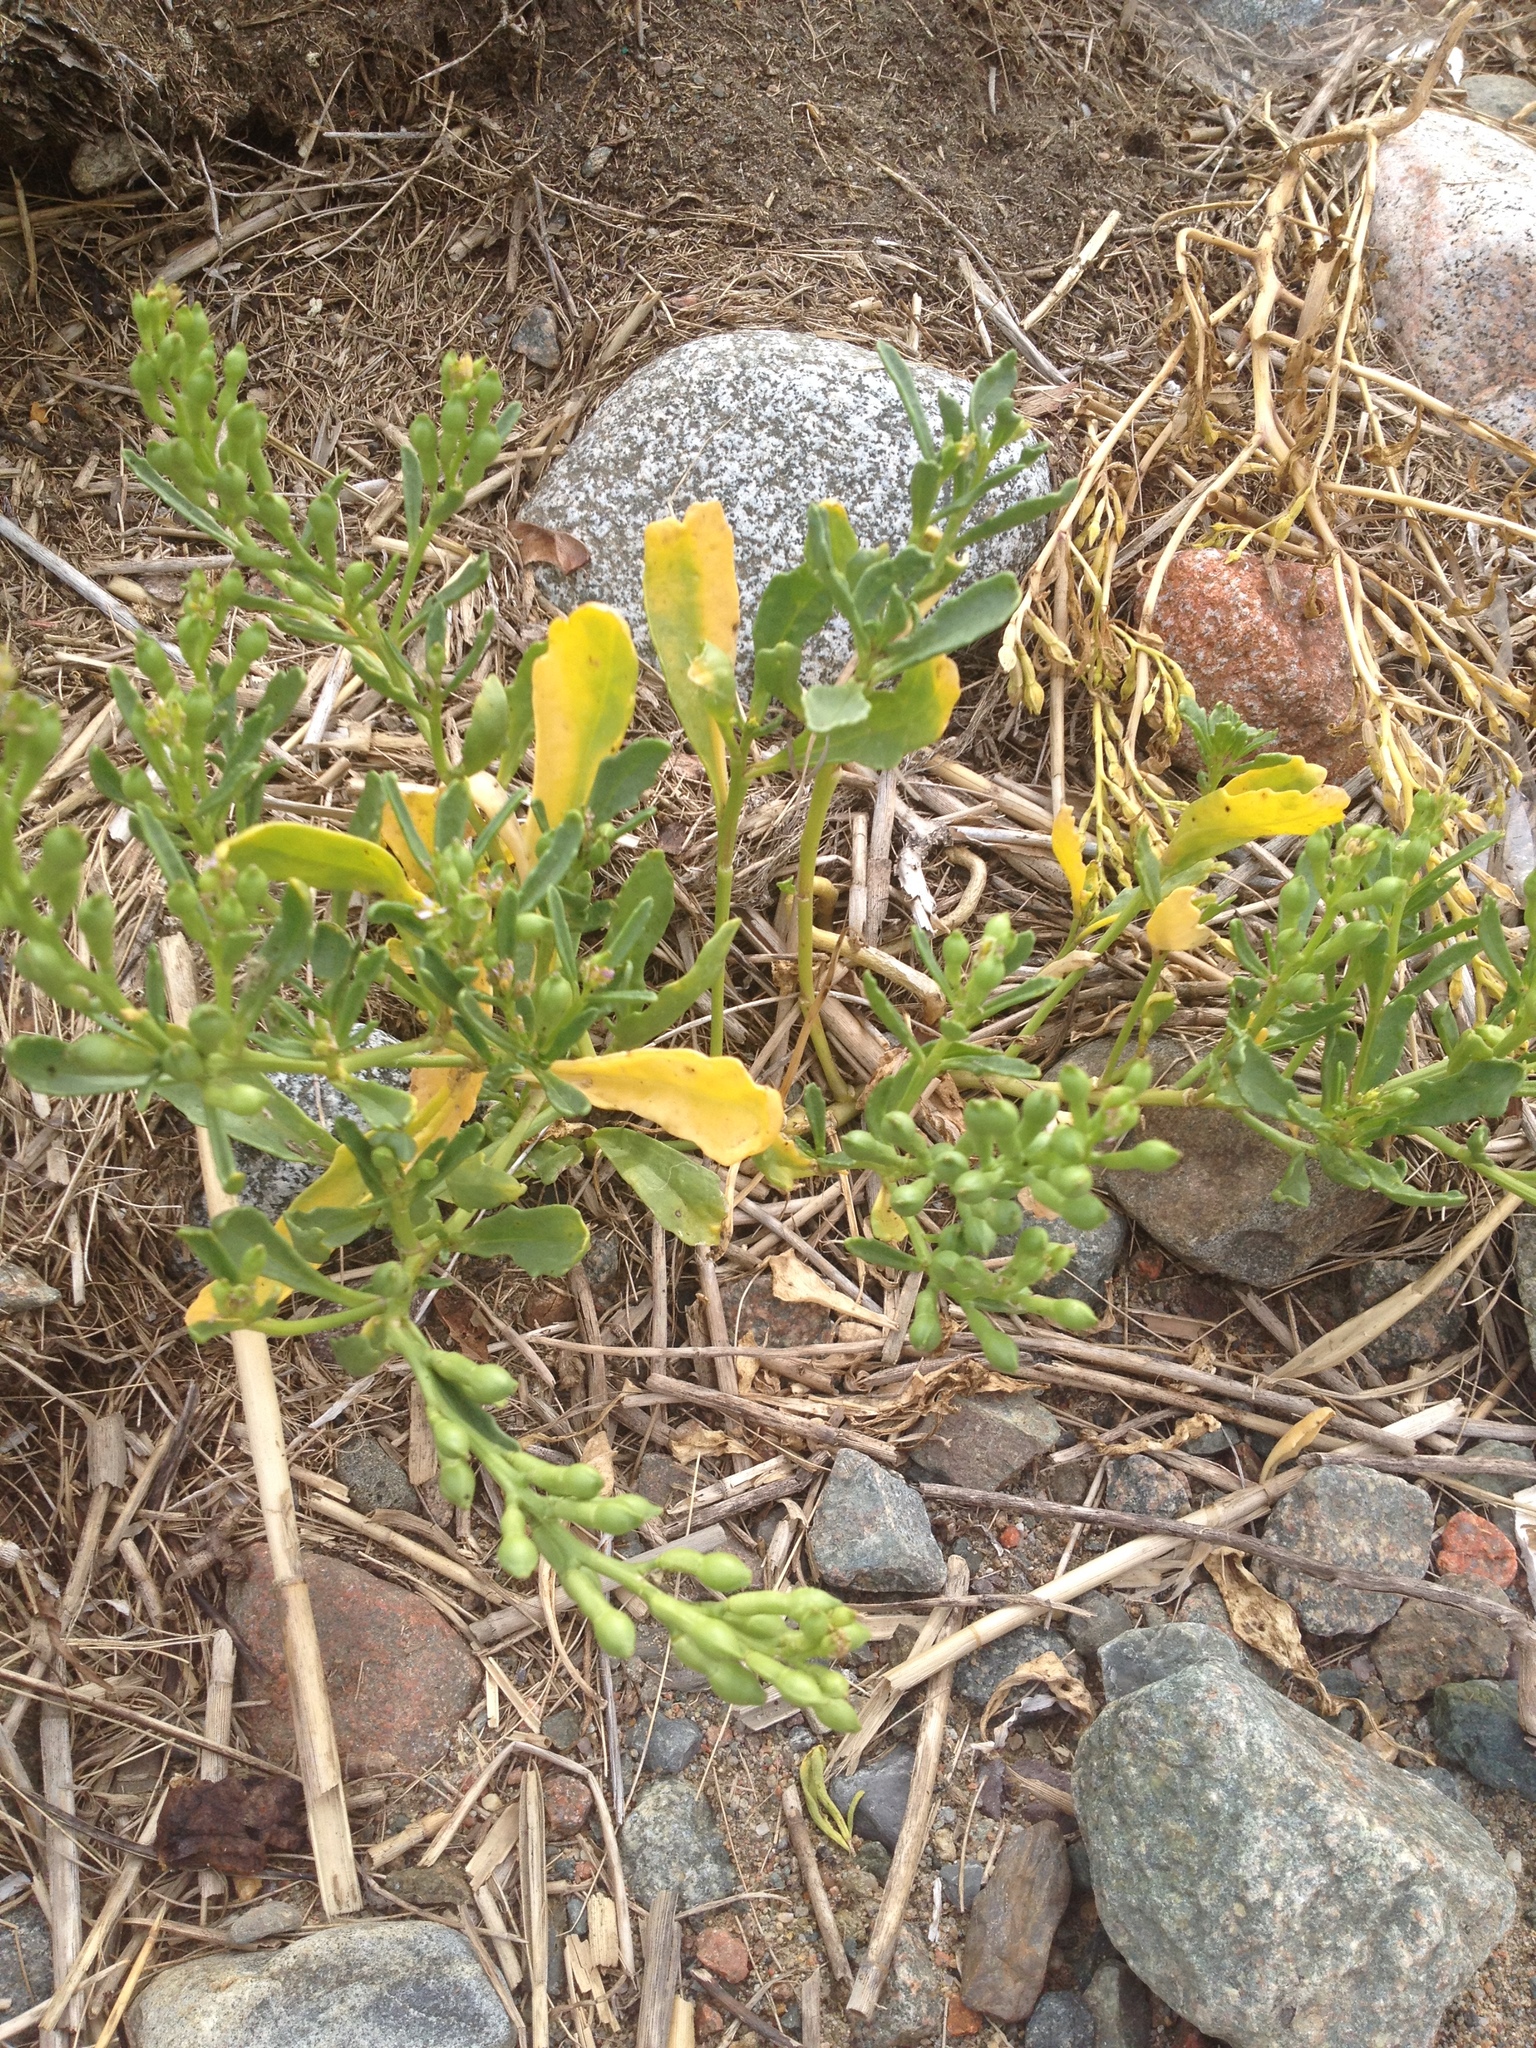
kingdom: Plantae
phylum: Tracheophyta
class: Magnoliopsida
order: Brassicales
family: Brassicaceae
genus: Cakile
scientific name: Cakile edentula
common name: American sea rocket
